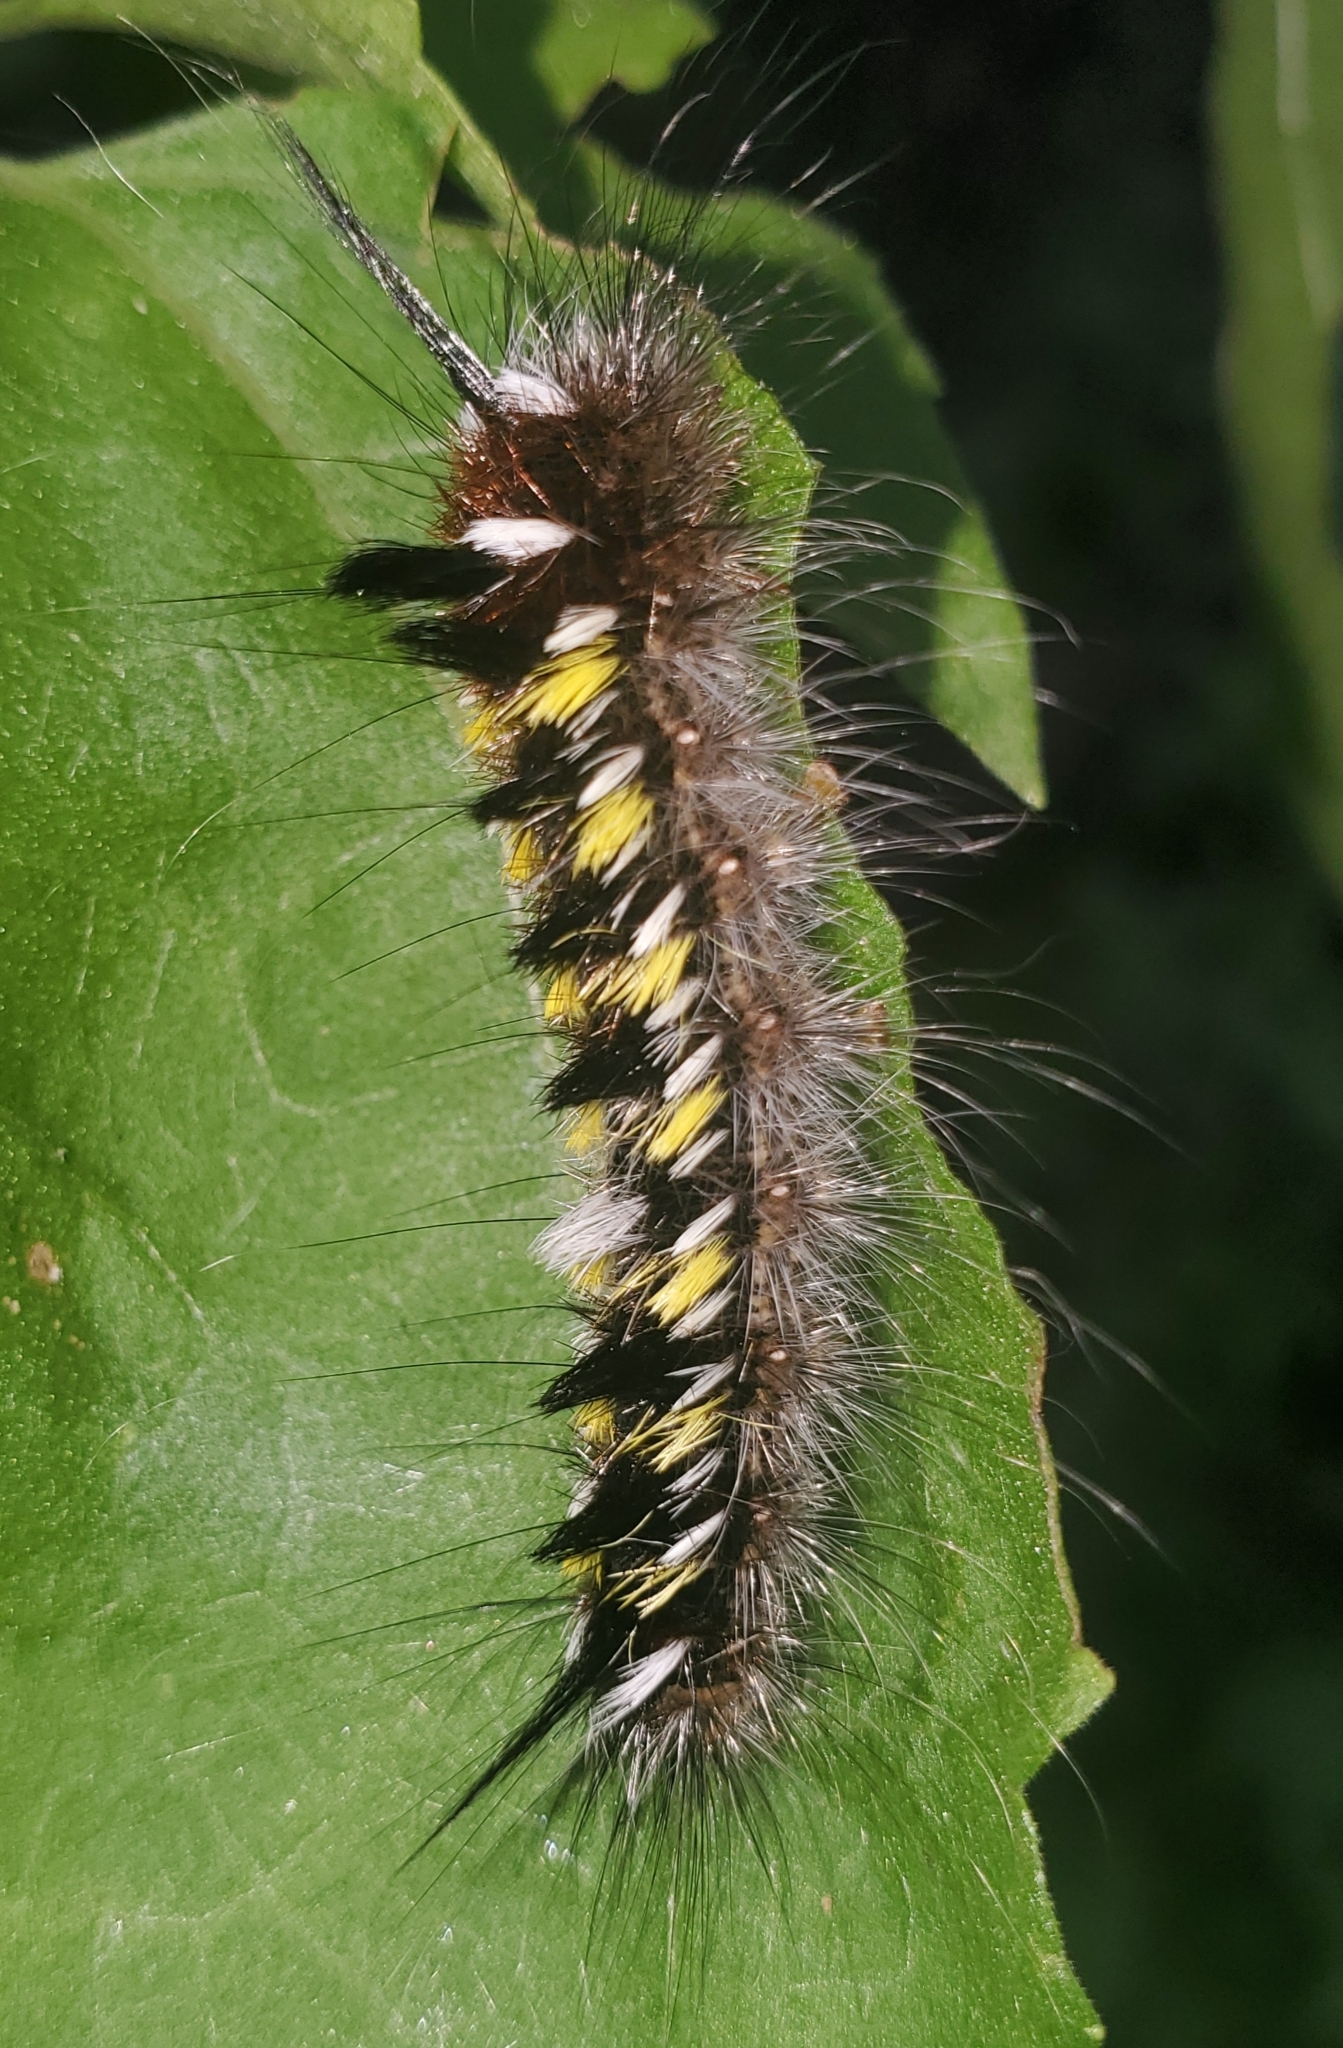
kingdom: Animalia
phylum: Arthropoda
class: Insecta
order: Lepidoptera
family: Apatelodidae
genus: Hygrochroa
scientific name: Hygrochroa Apatelodes pudefacta
